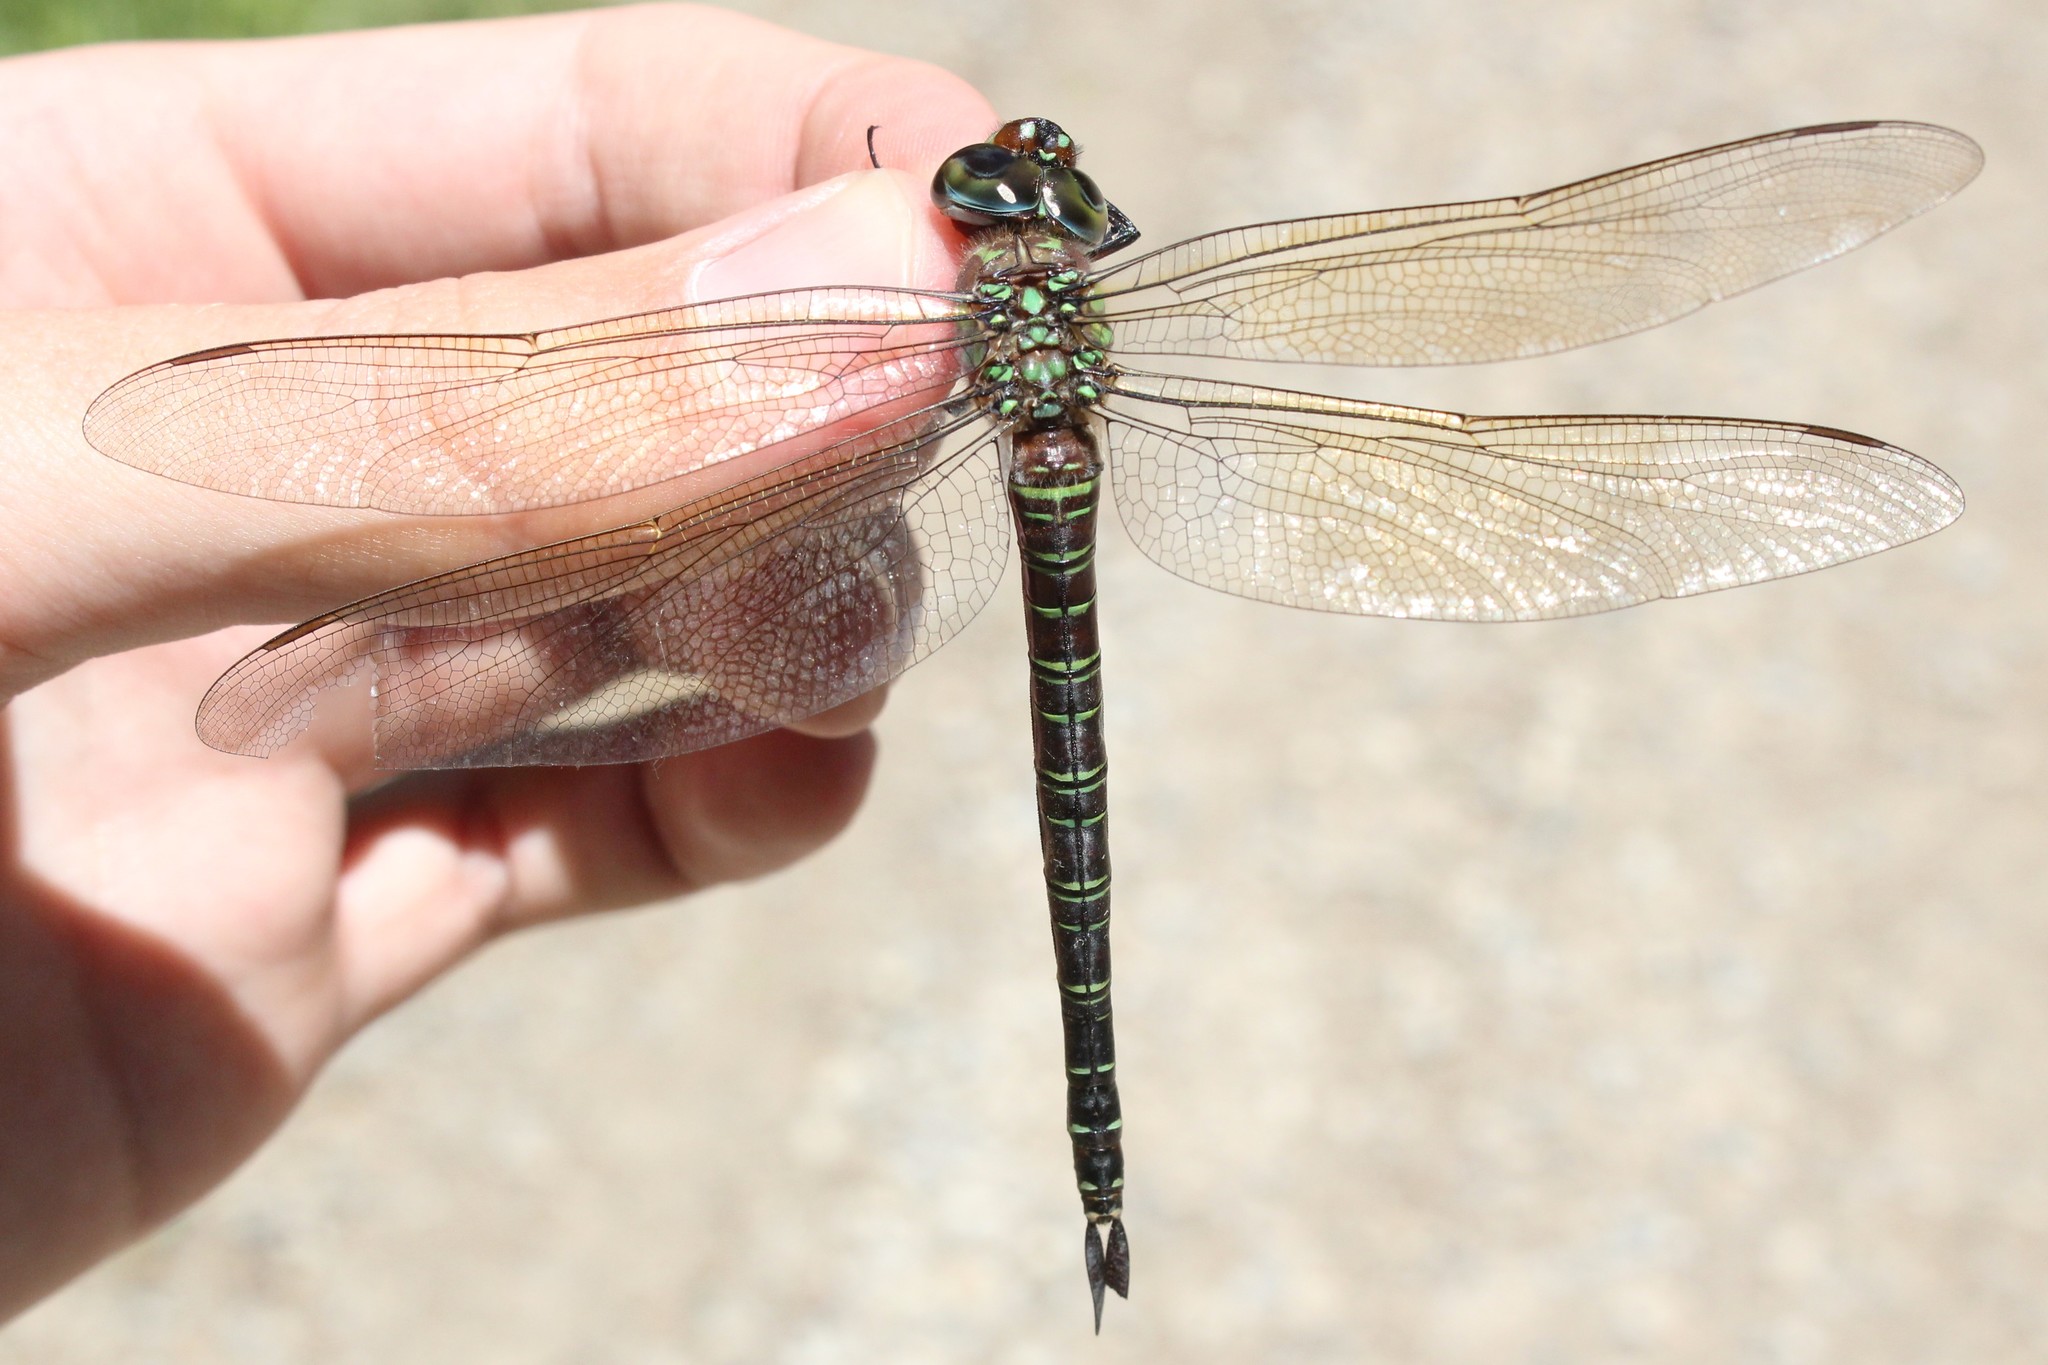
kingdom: Animalia
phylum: Arthropoda
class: Insecta
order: Odonata
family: Aeshnidae
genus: Epiaeschna
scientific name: Epiaeschna heros
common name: Swamp darner
